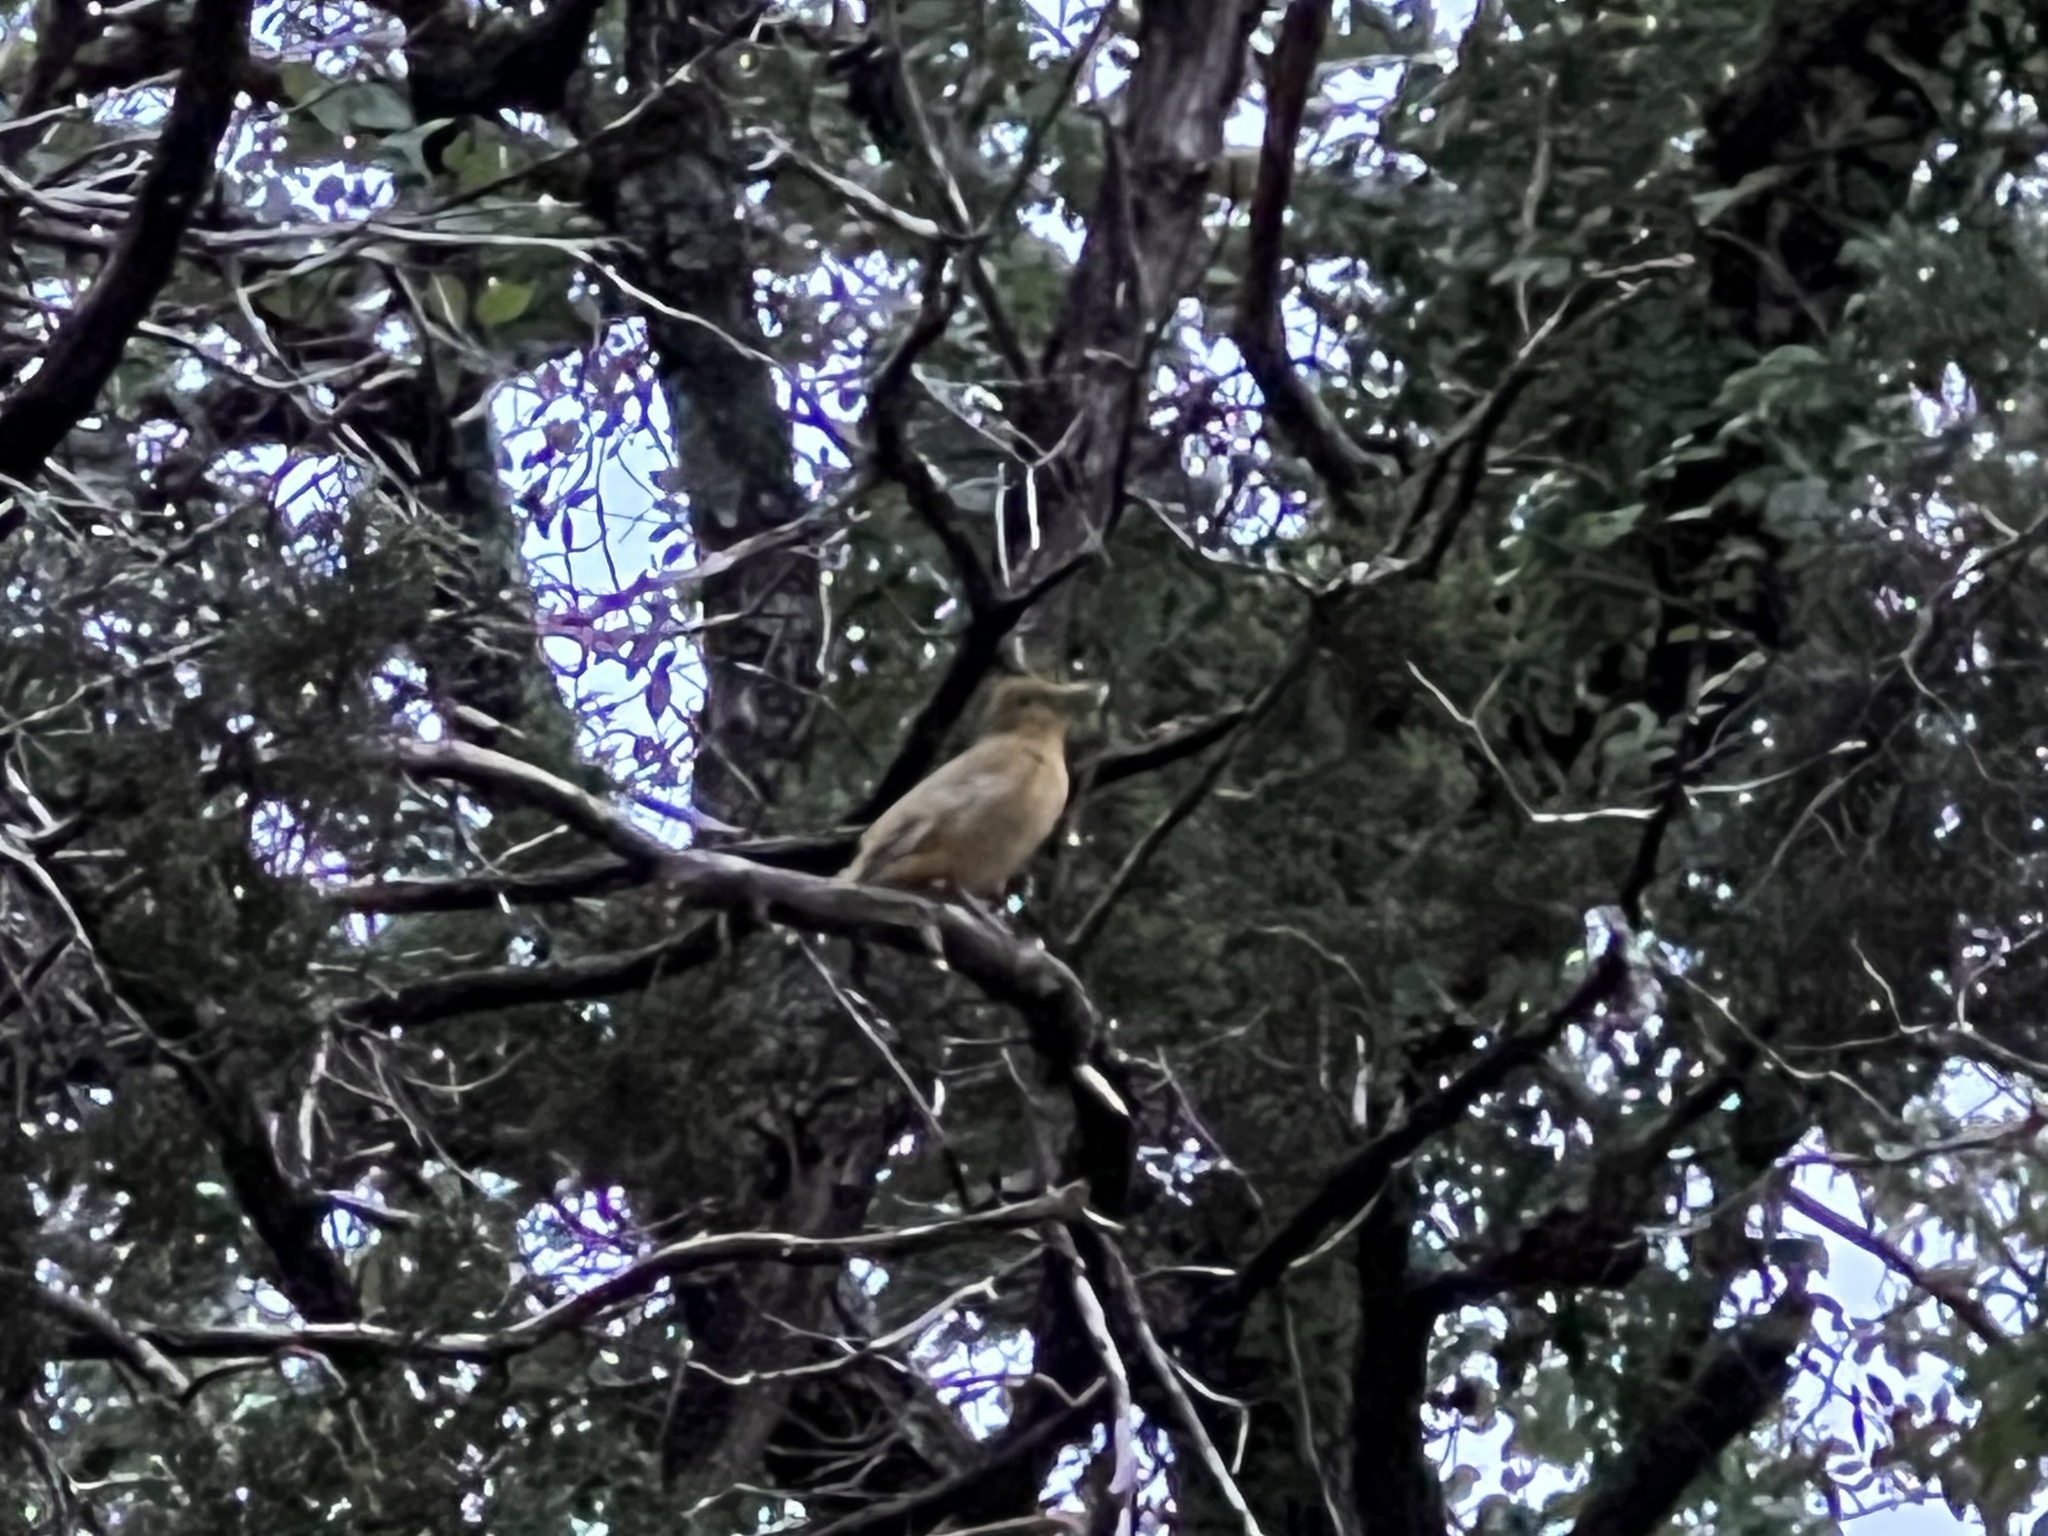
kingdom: Animalia
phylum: Chordata
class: Aves
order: Passeriformes
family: Cardinalidae
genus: Piranga
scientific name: Piranga rubra
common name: Summer tanager
